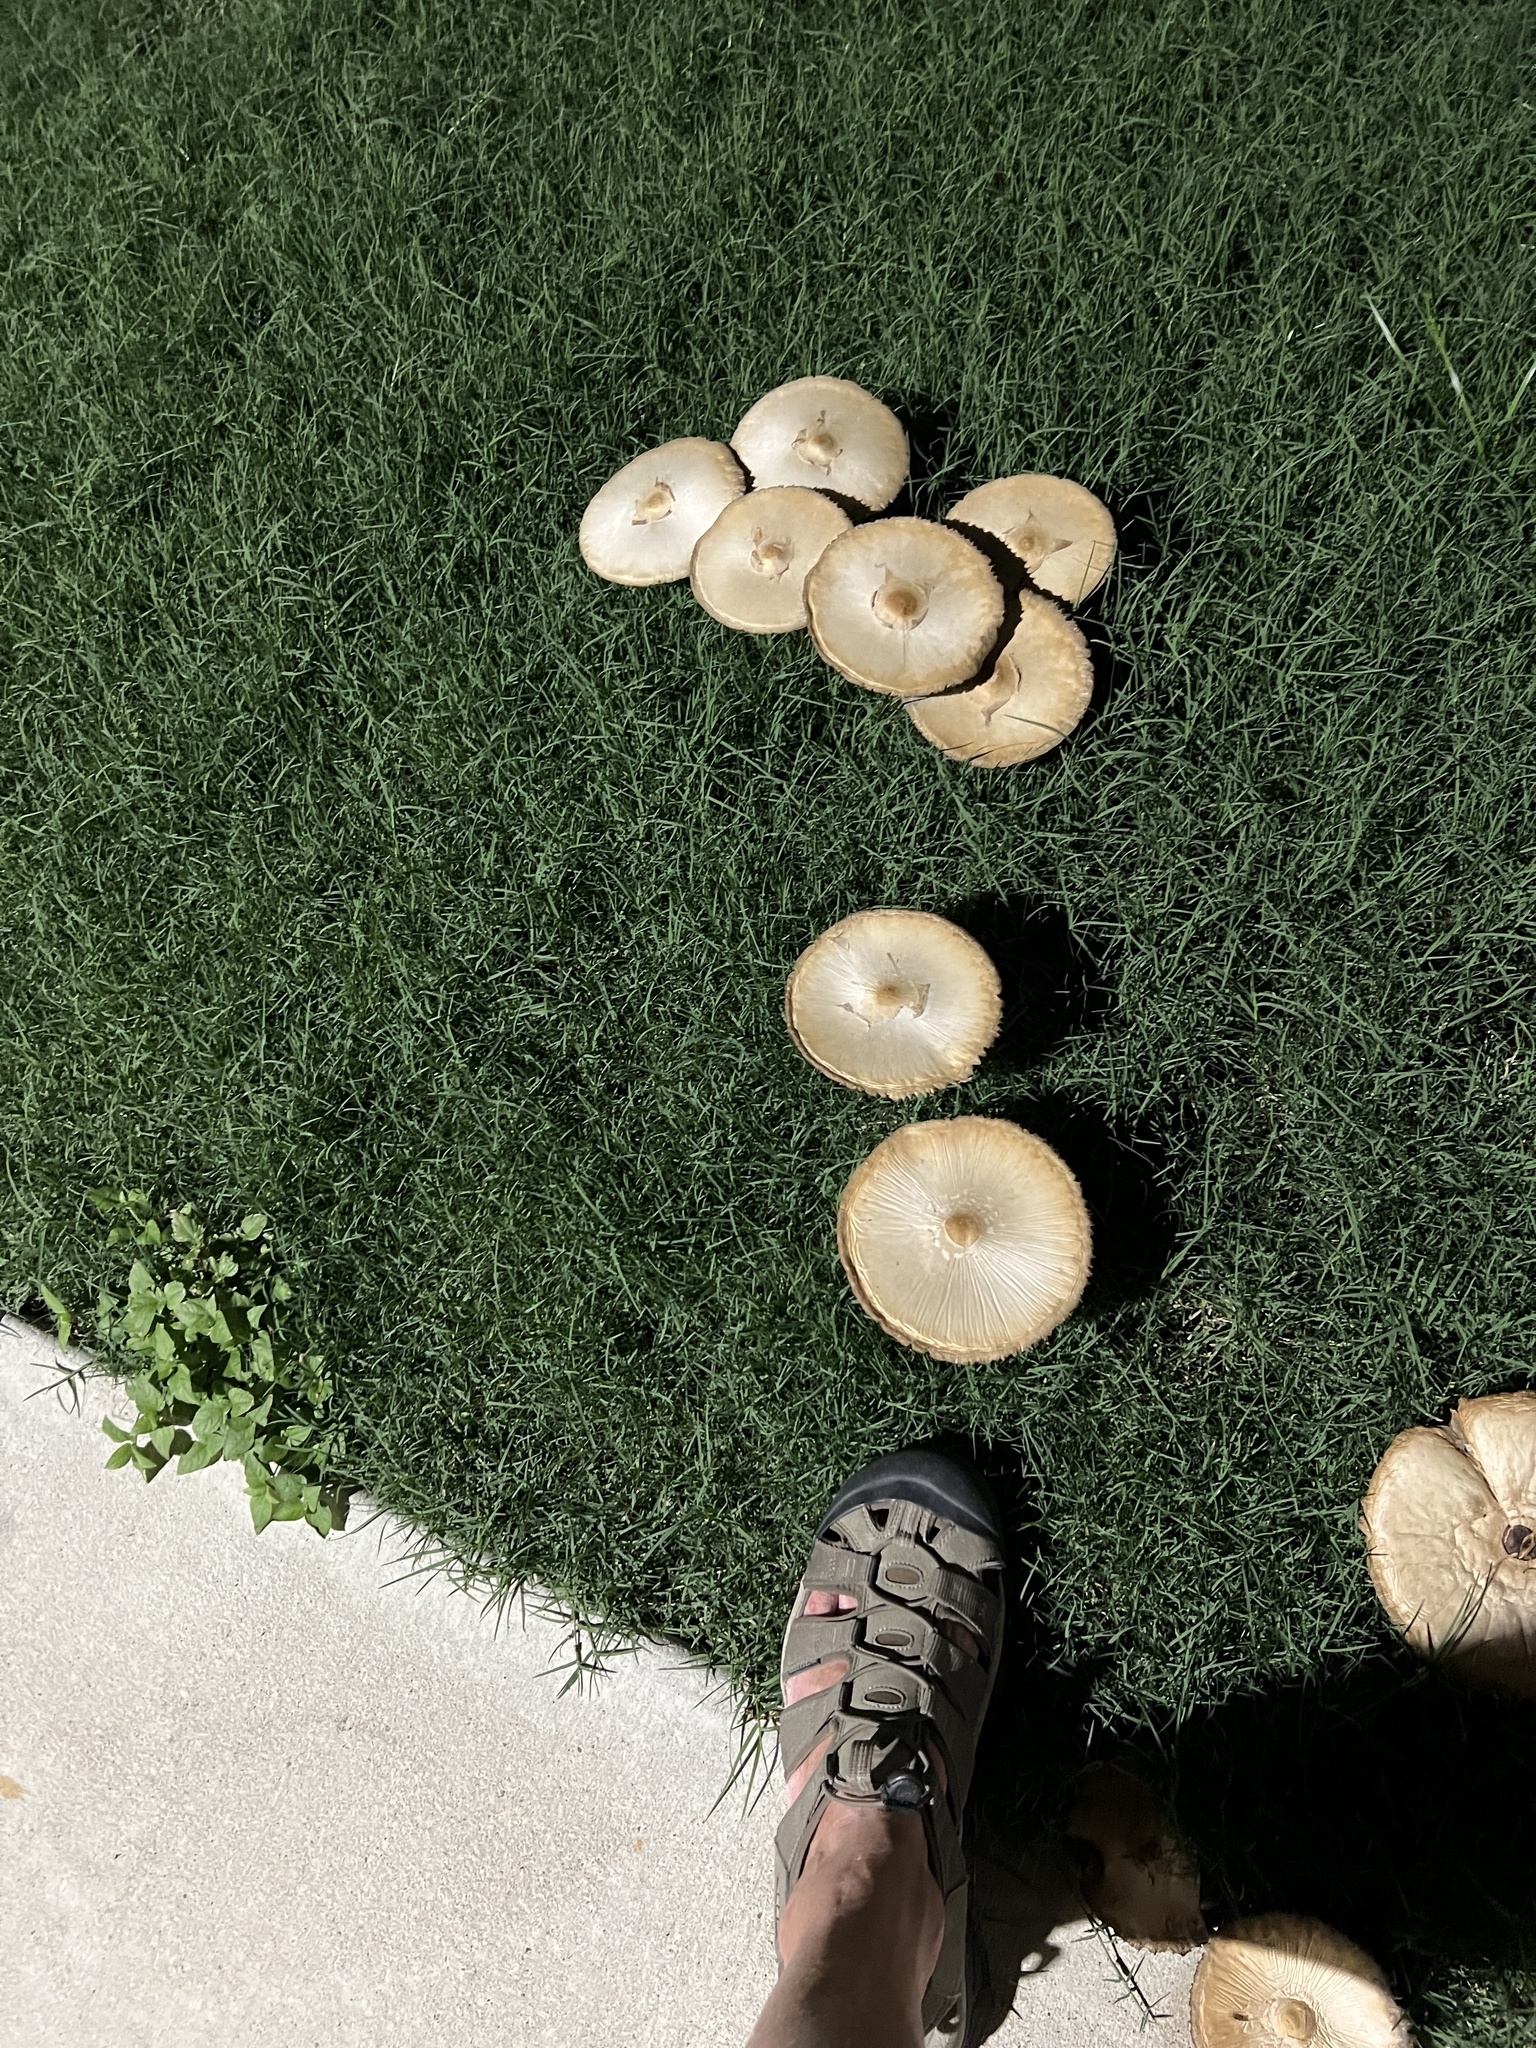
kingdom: Fungi
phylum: Basidiomycota
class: Agaricomycetes
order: Agaricales
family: Agaricaceae
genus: Chlorophyllum
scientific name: Chlorophyllum molybdites
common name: False parasol
